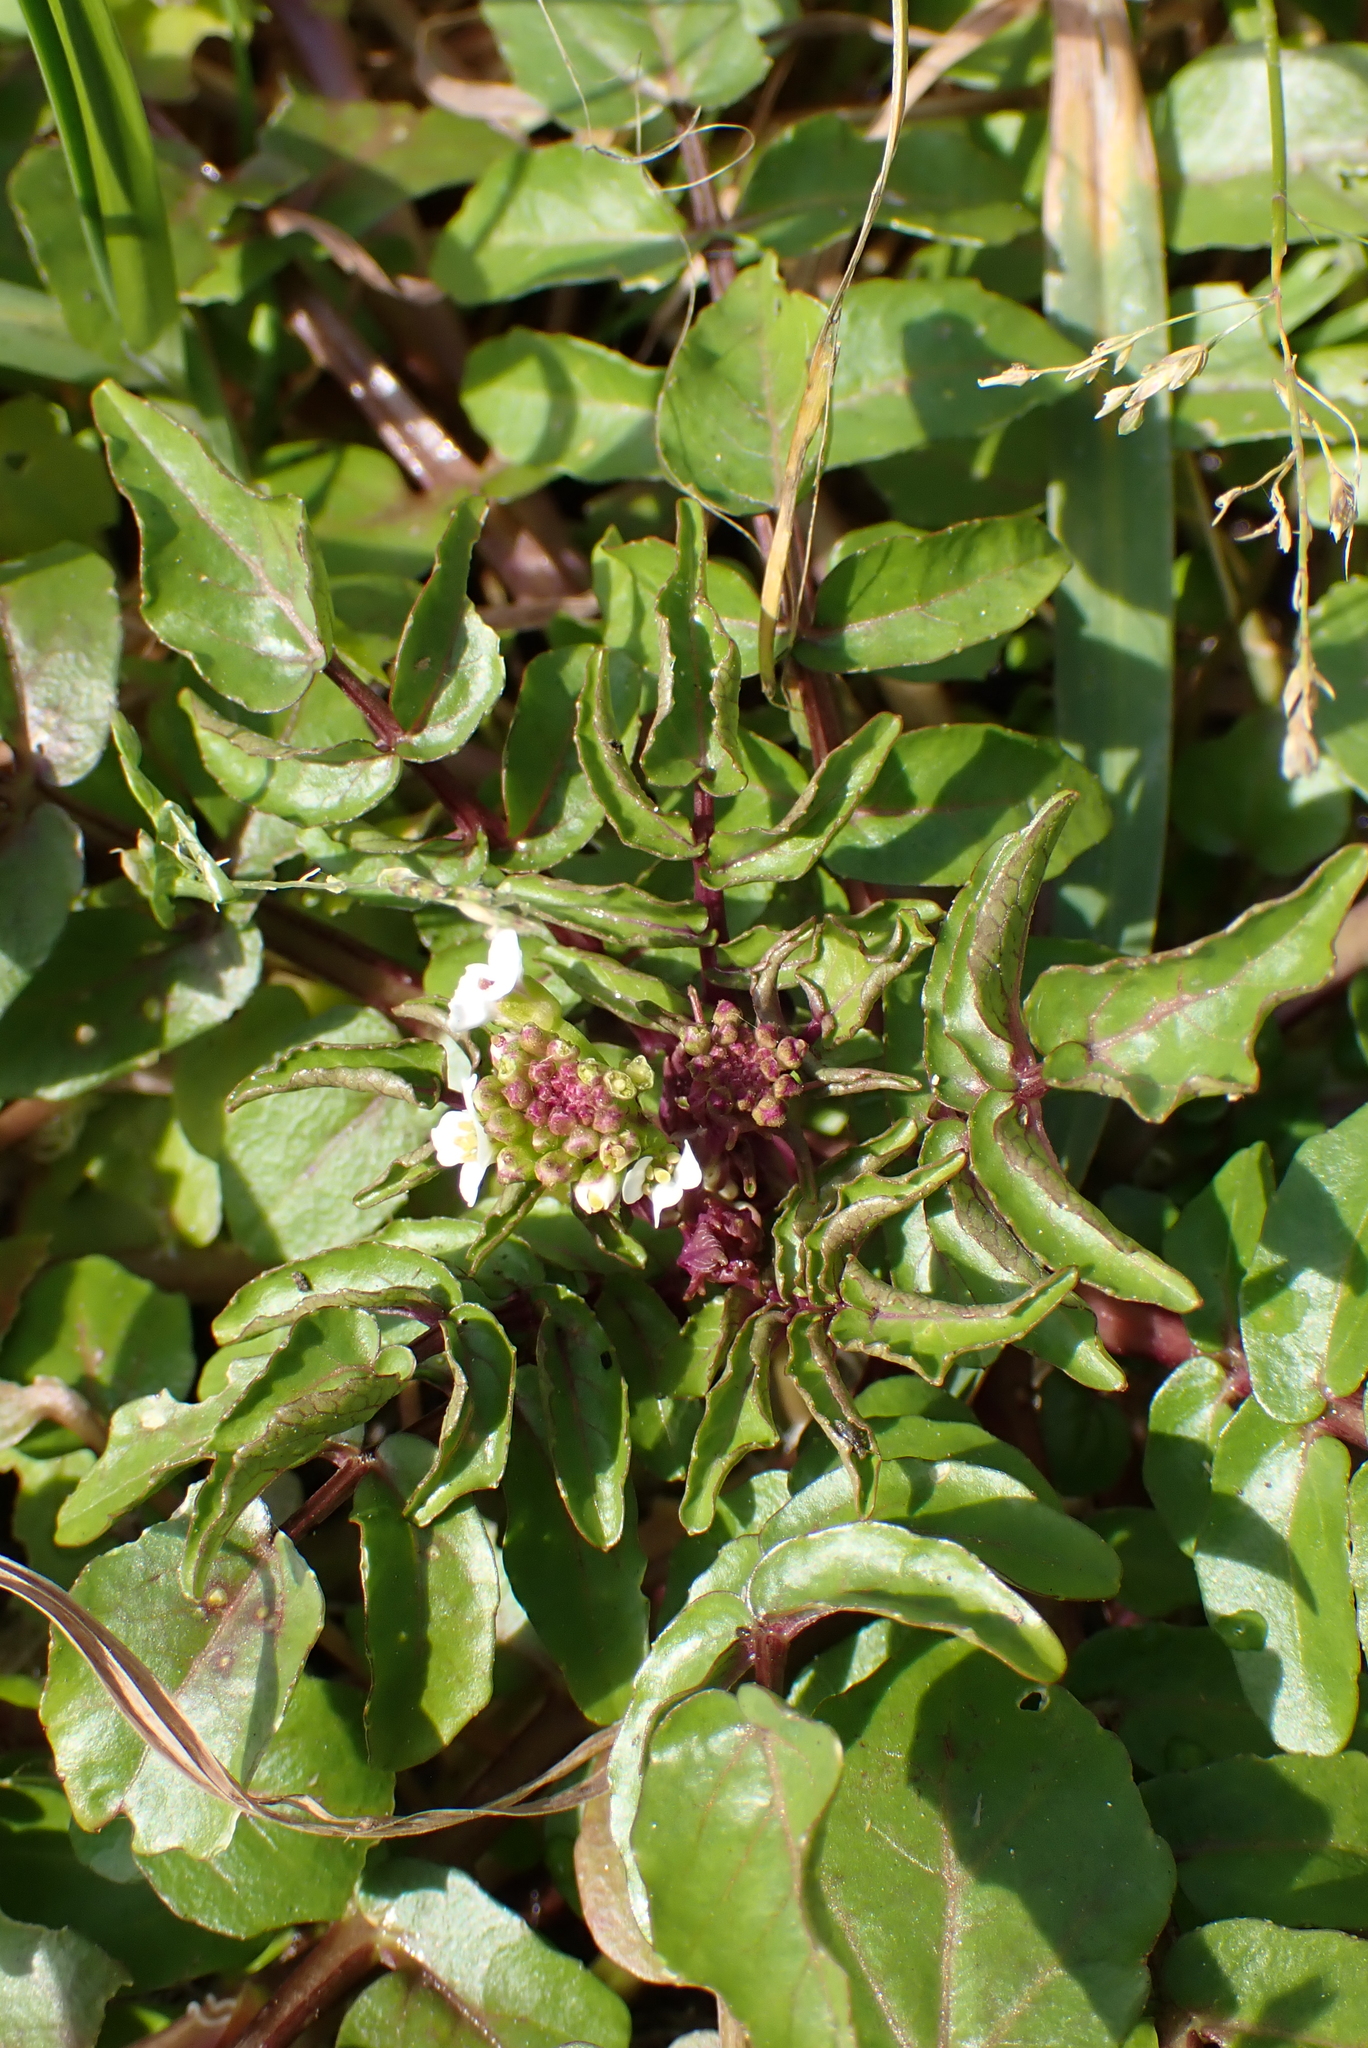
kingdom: Plantae
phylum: Tracheophyta
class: Magnoliopsida
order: Brassicales
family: Brassicaceae
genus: Nasturtium
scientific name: Nasturtium officinale
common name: Watercress
